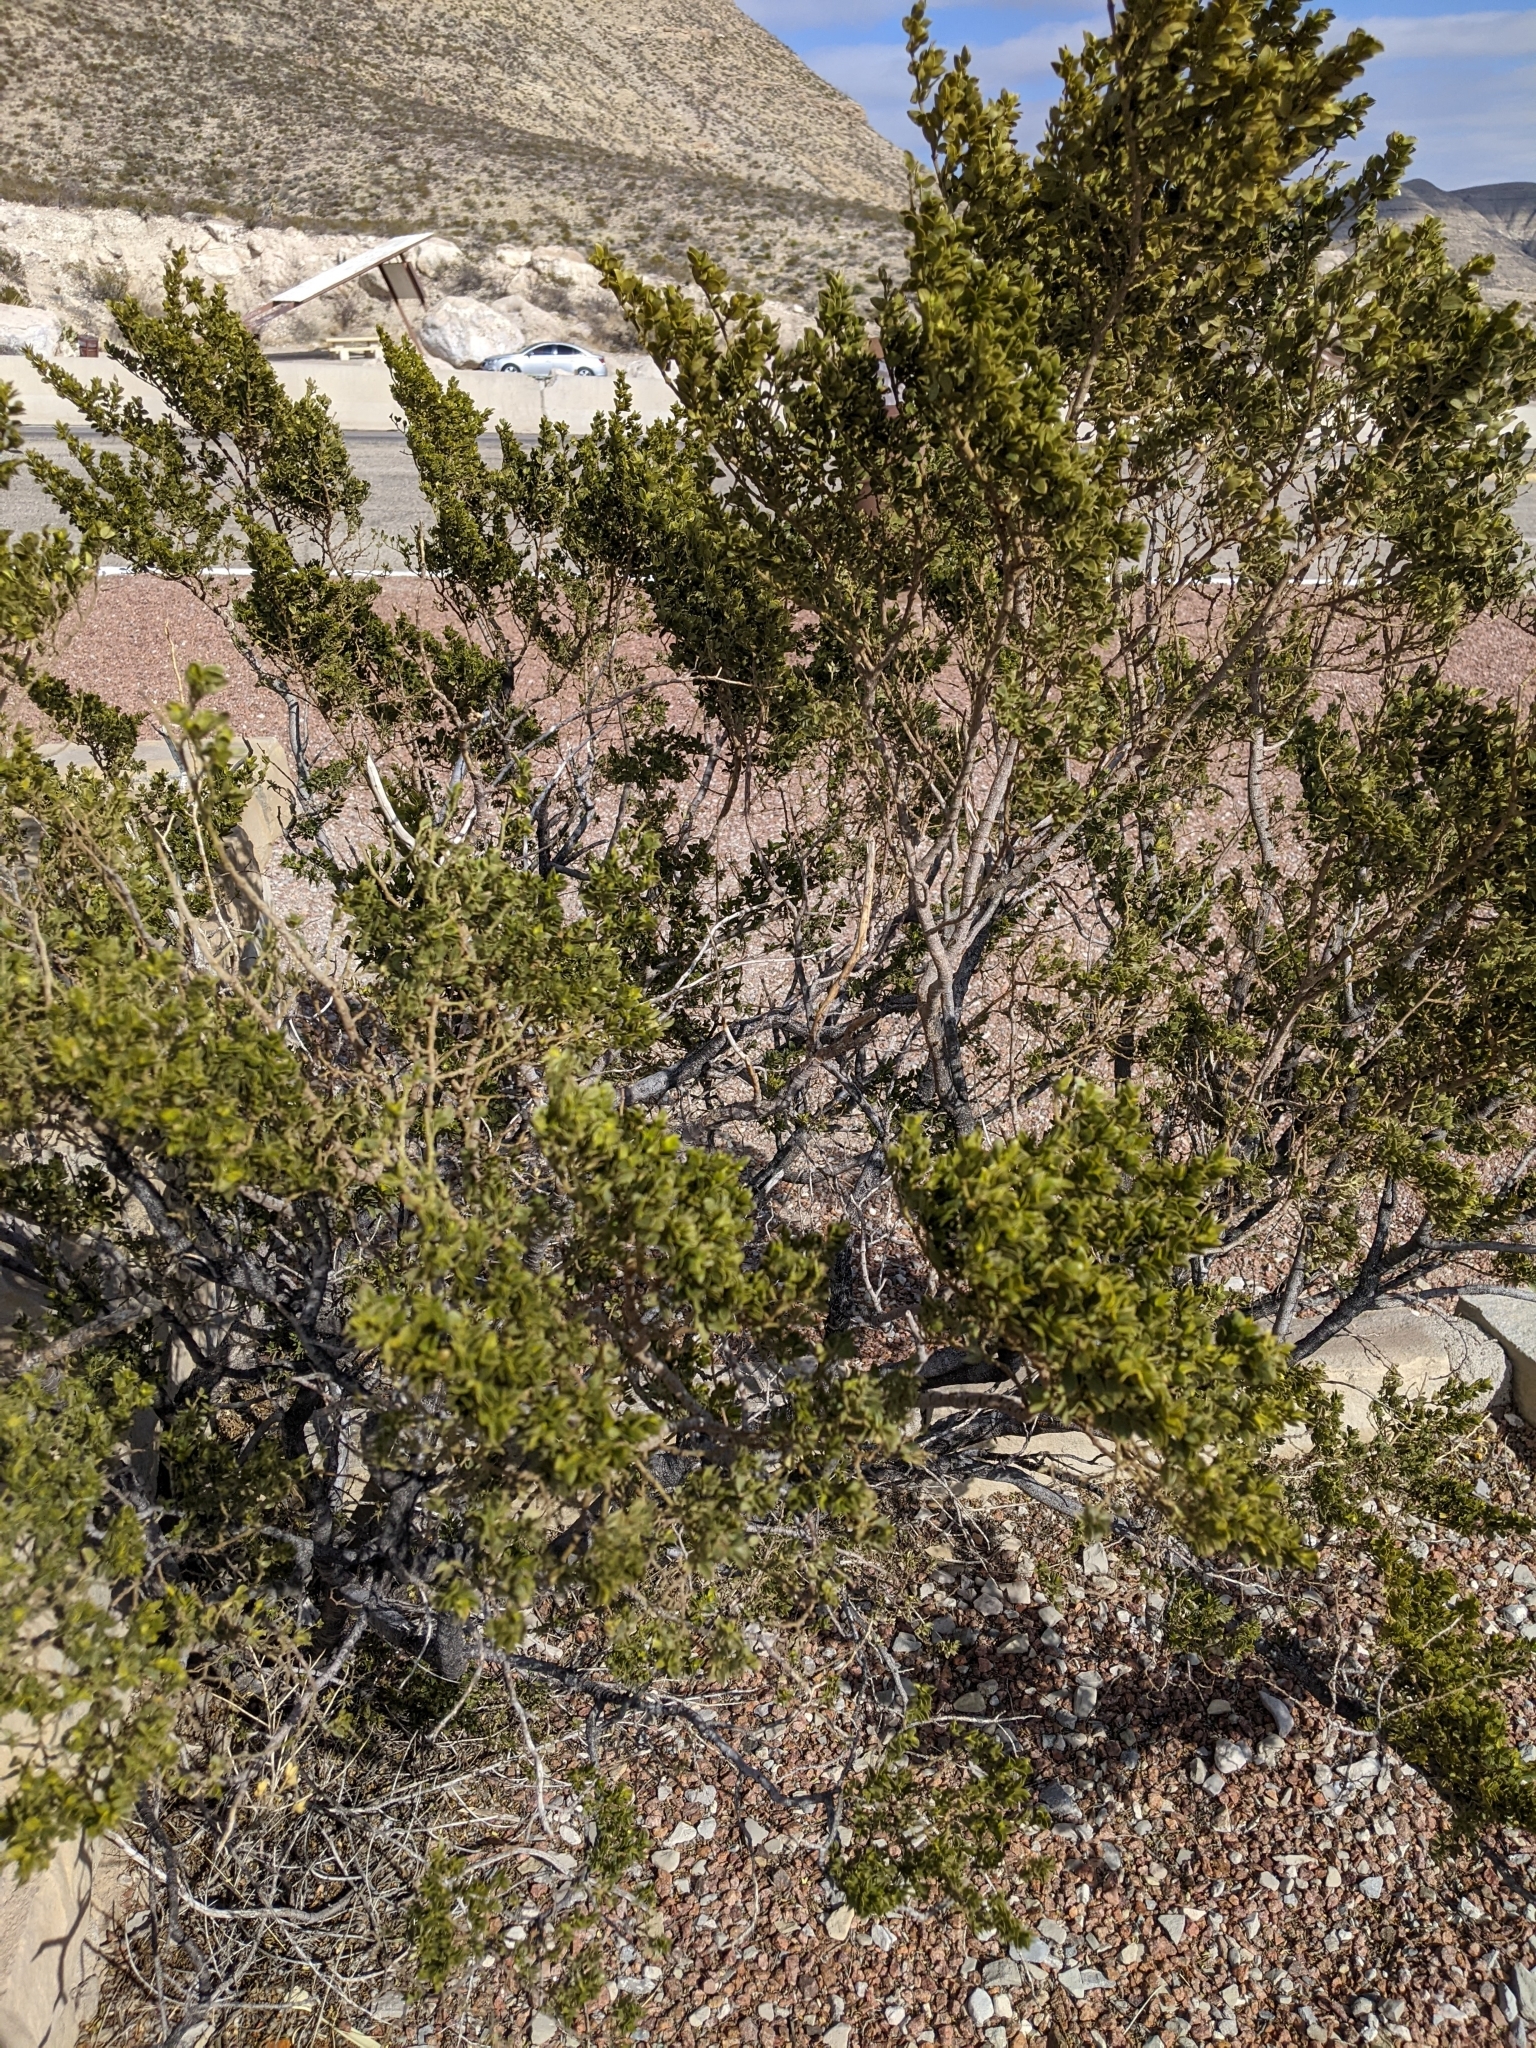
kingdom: Plantae
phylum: Tracheophyta
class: Magnoliopsida
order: Zygophyllales
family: Zygophyllaceae
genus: Larrea
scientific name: Larrea tridentata
